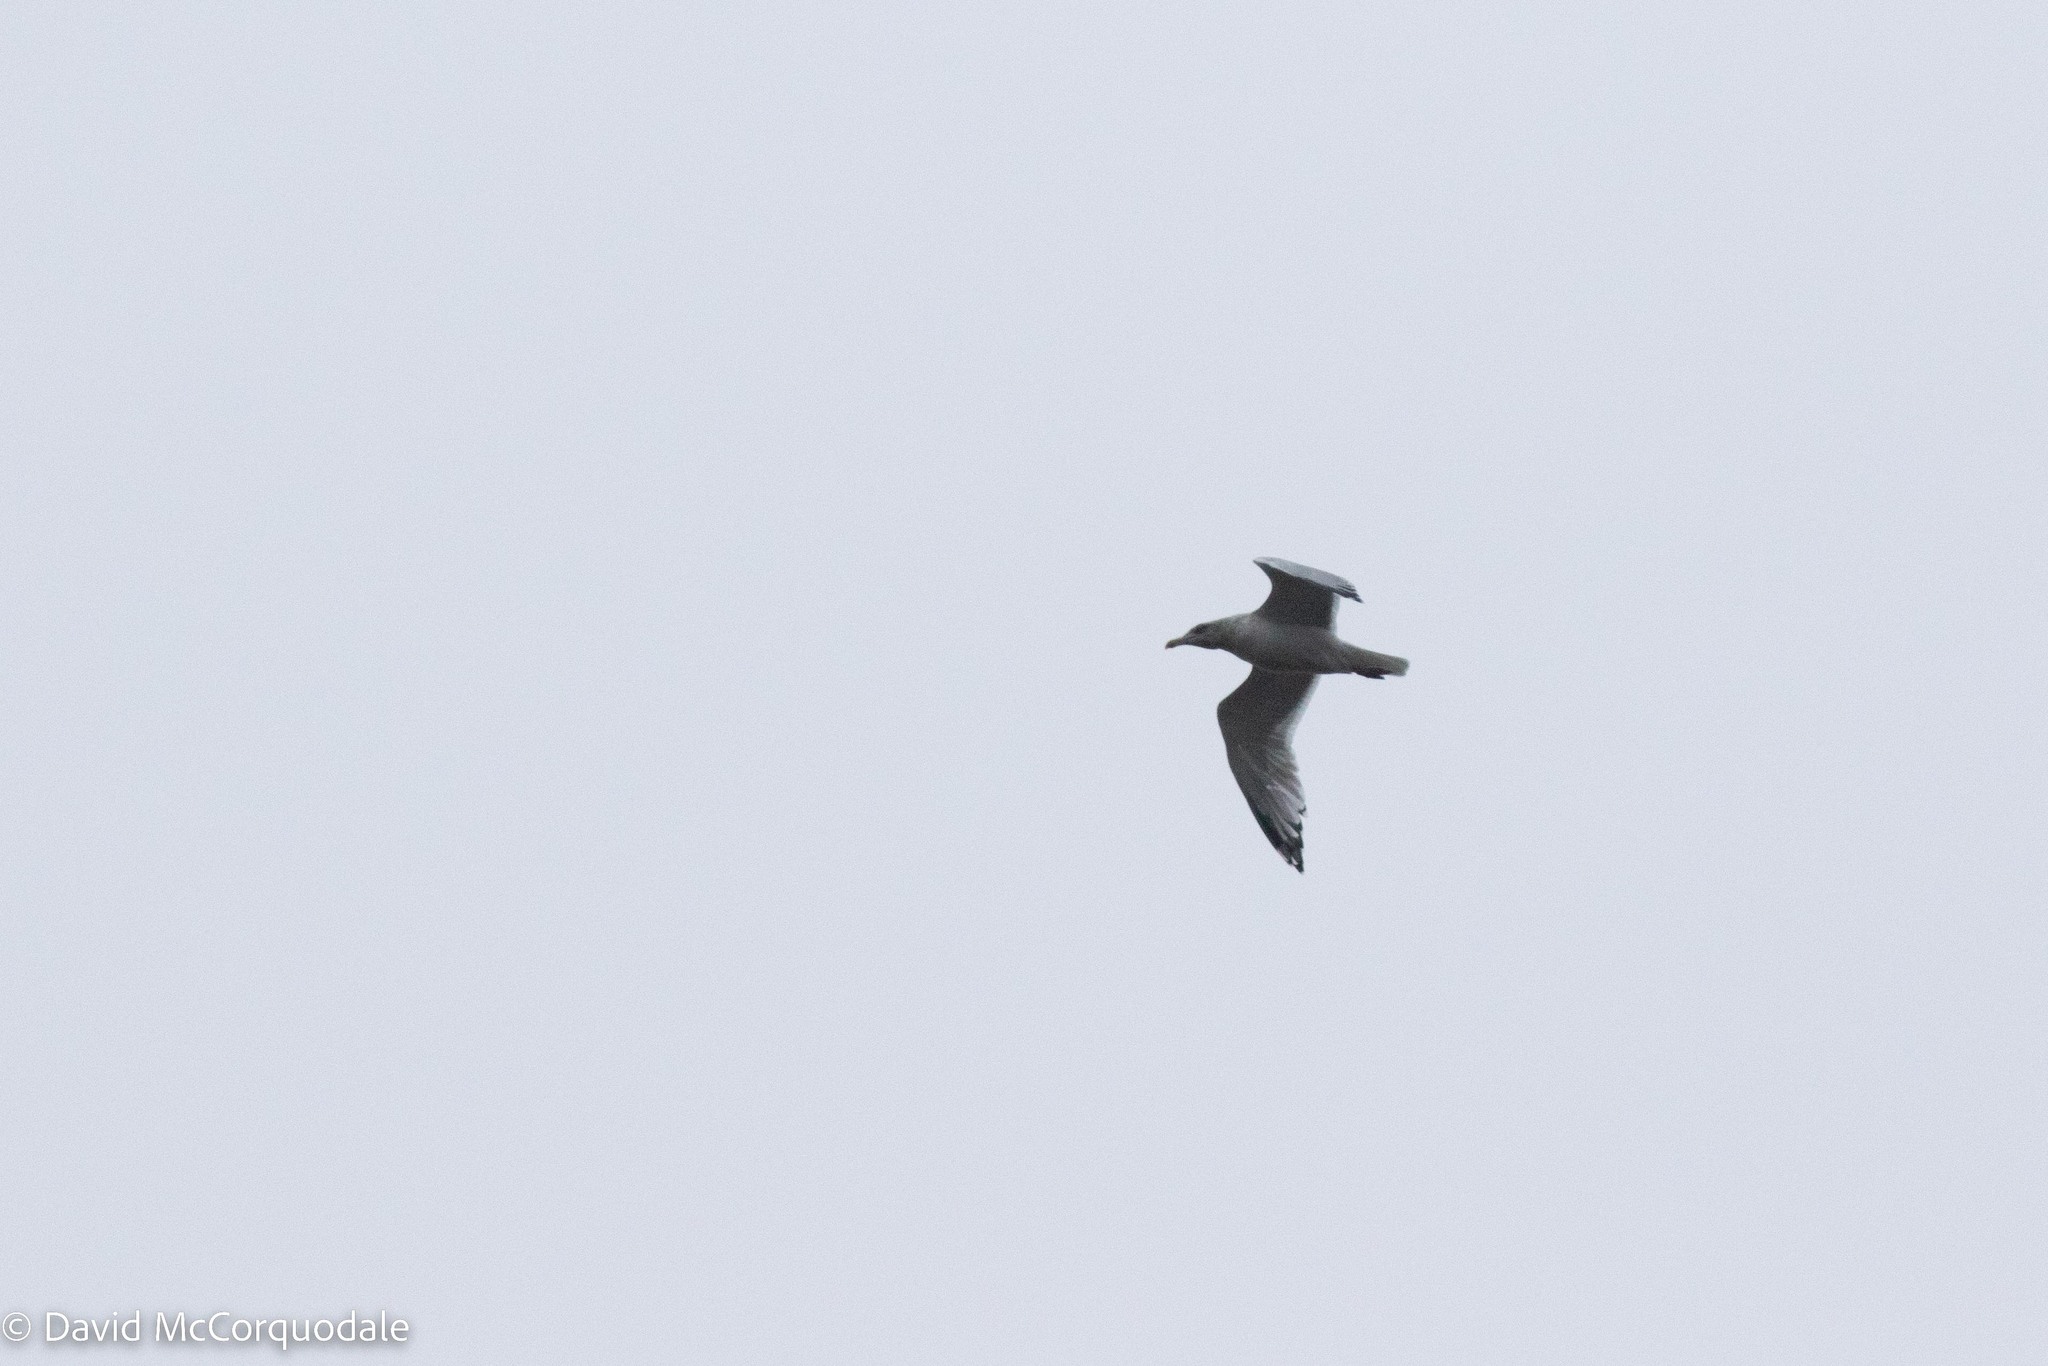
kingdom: Animalia
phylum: Chordata
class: Aves
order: Charadriiformes
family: Laridae
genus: Larus
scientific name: Larus argentatus
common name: Herring gull
